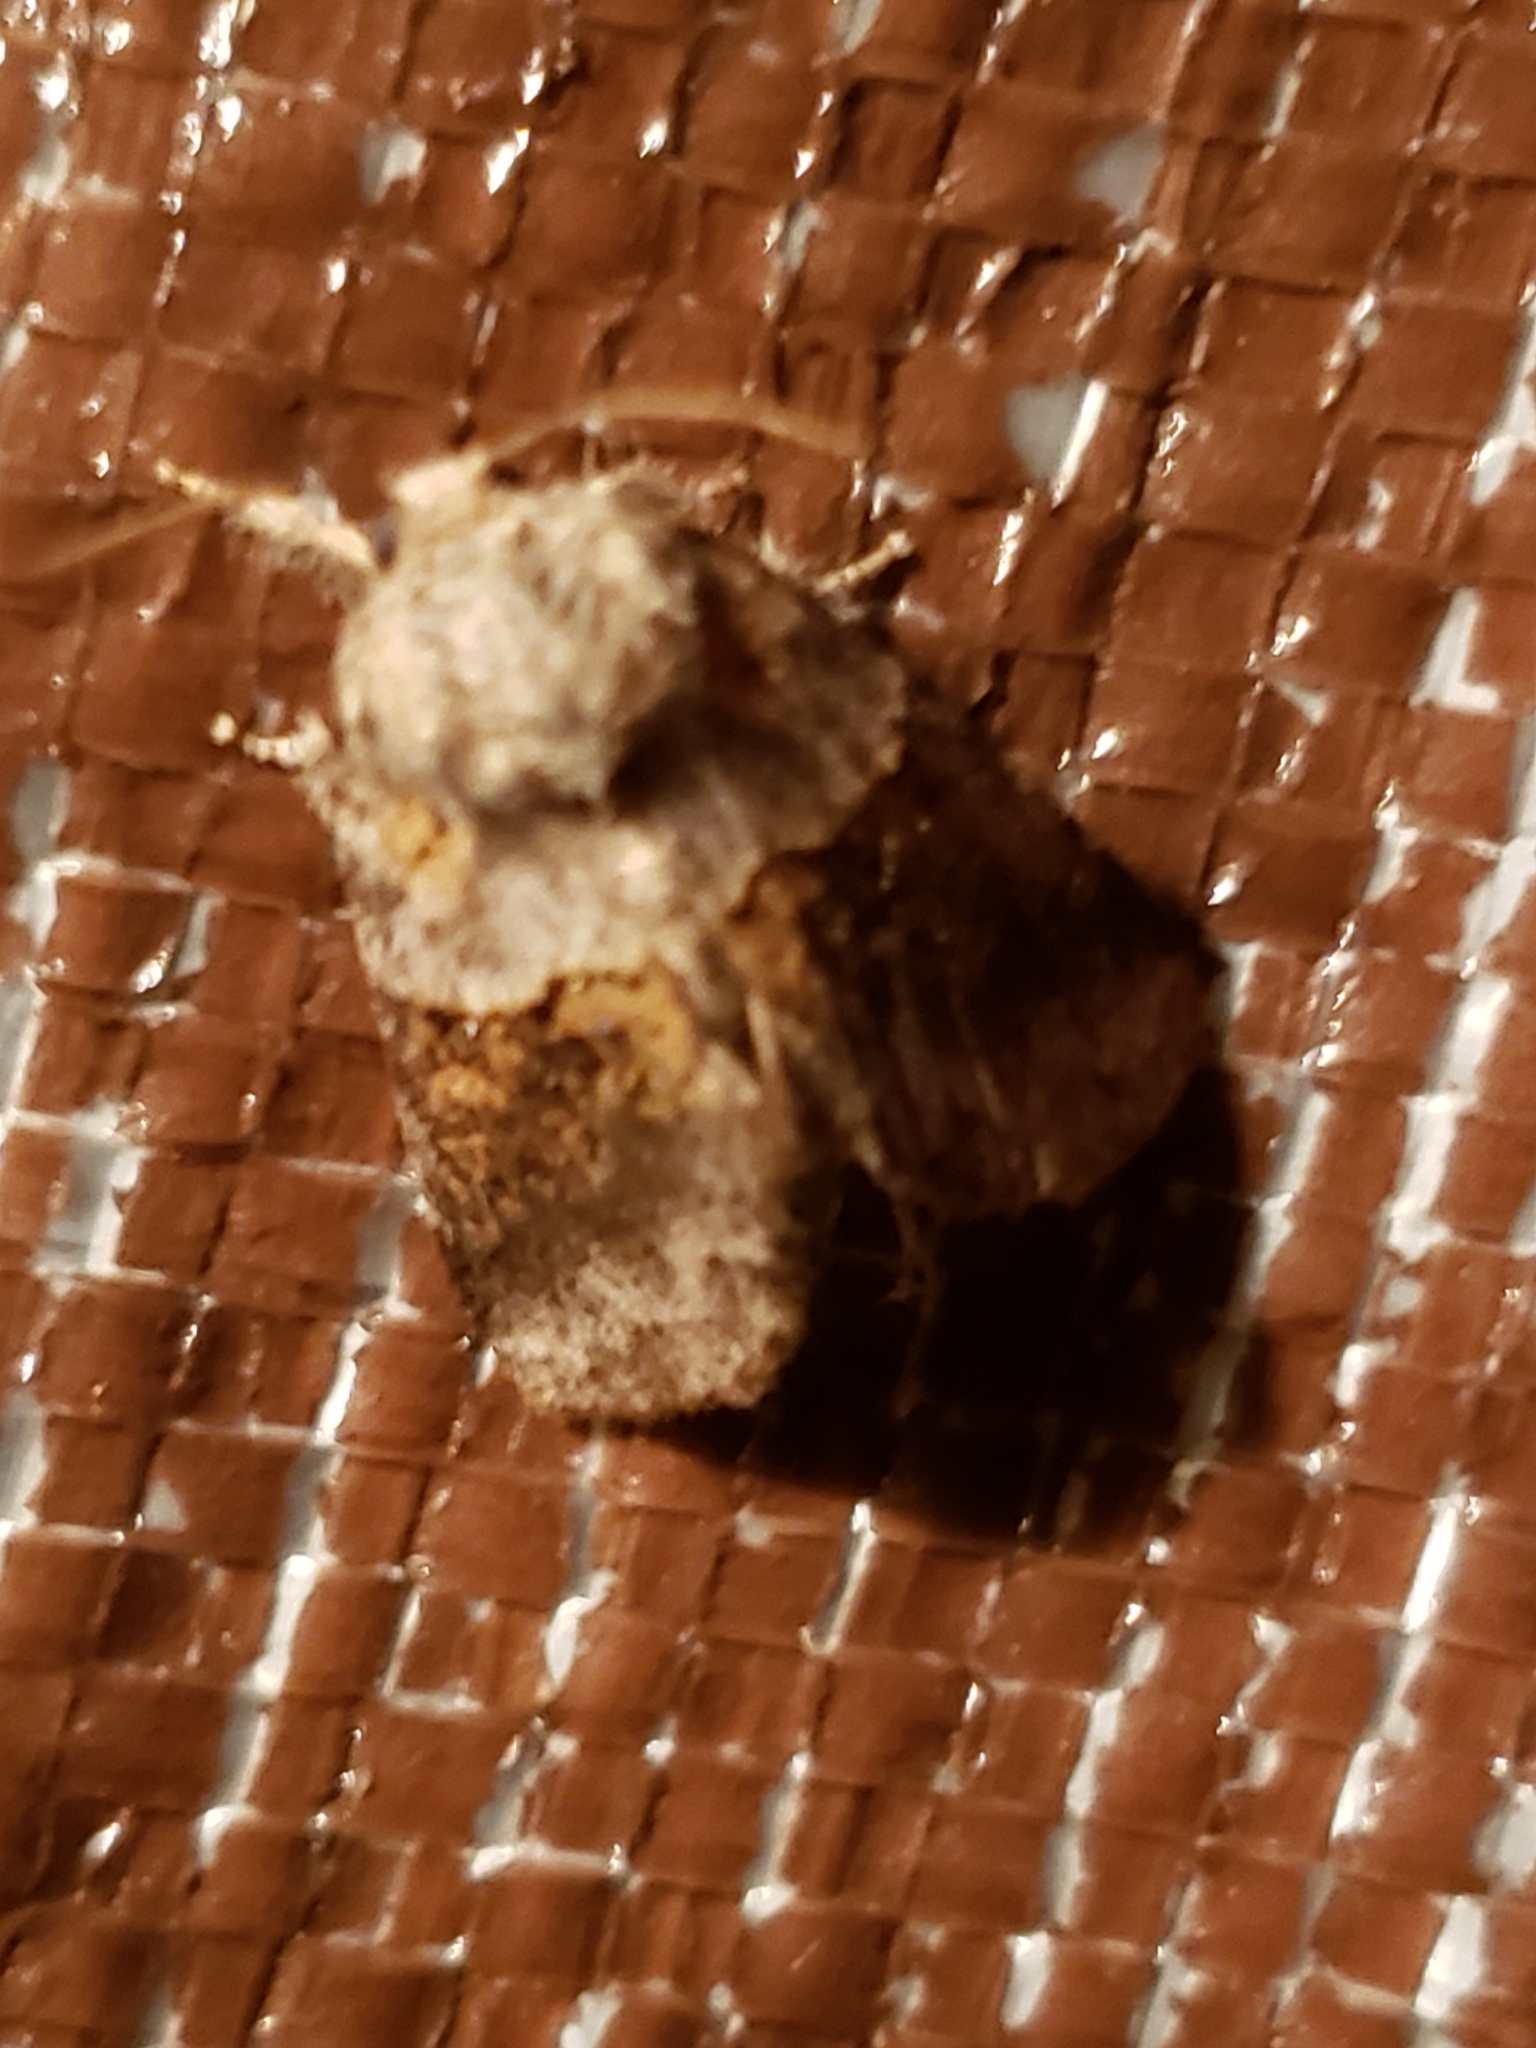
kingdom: Animalia
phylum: Arthropoda
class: Insecta
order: Lepidoptera
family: Notodontidae
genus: Gluphisia
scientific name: Gluphisia septentrionis
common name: Common gluphisia
